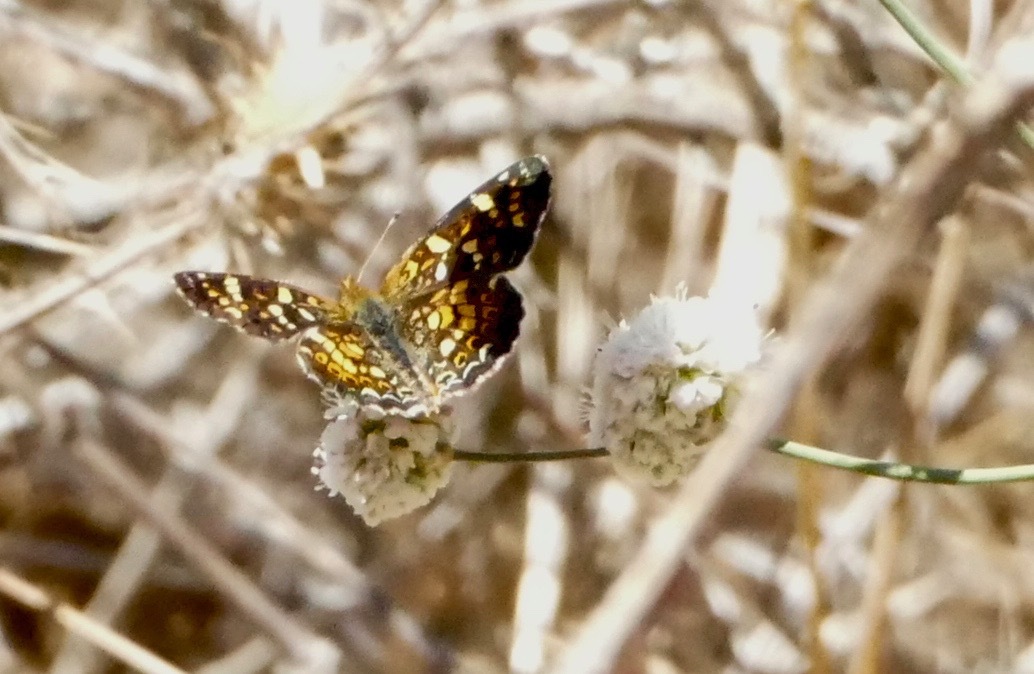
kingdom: Animalia
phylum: Arthropoda
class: Insecta
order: Lepidoptera
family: Nymphalidae
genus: Phyciodes
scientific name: Phyciodes tharos
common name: Pearl crescent
